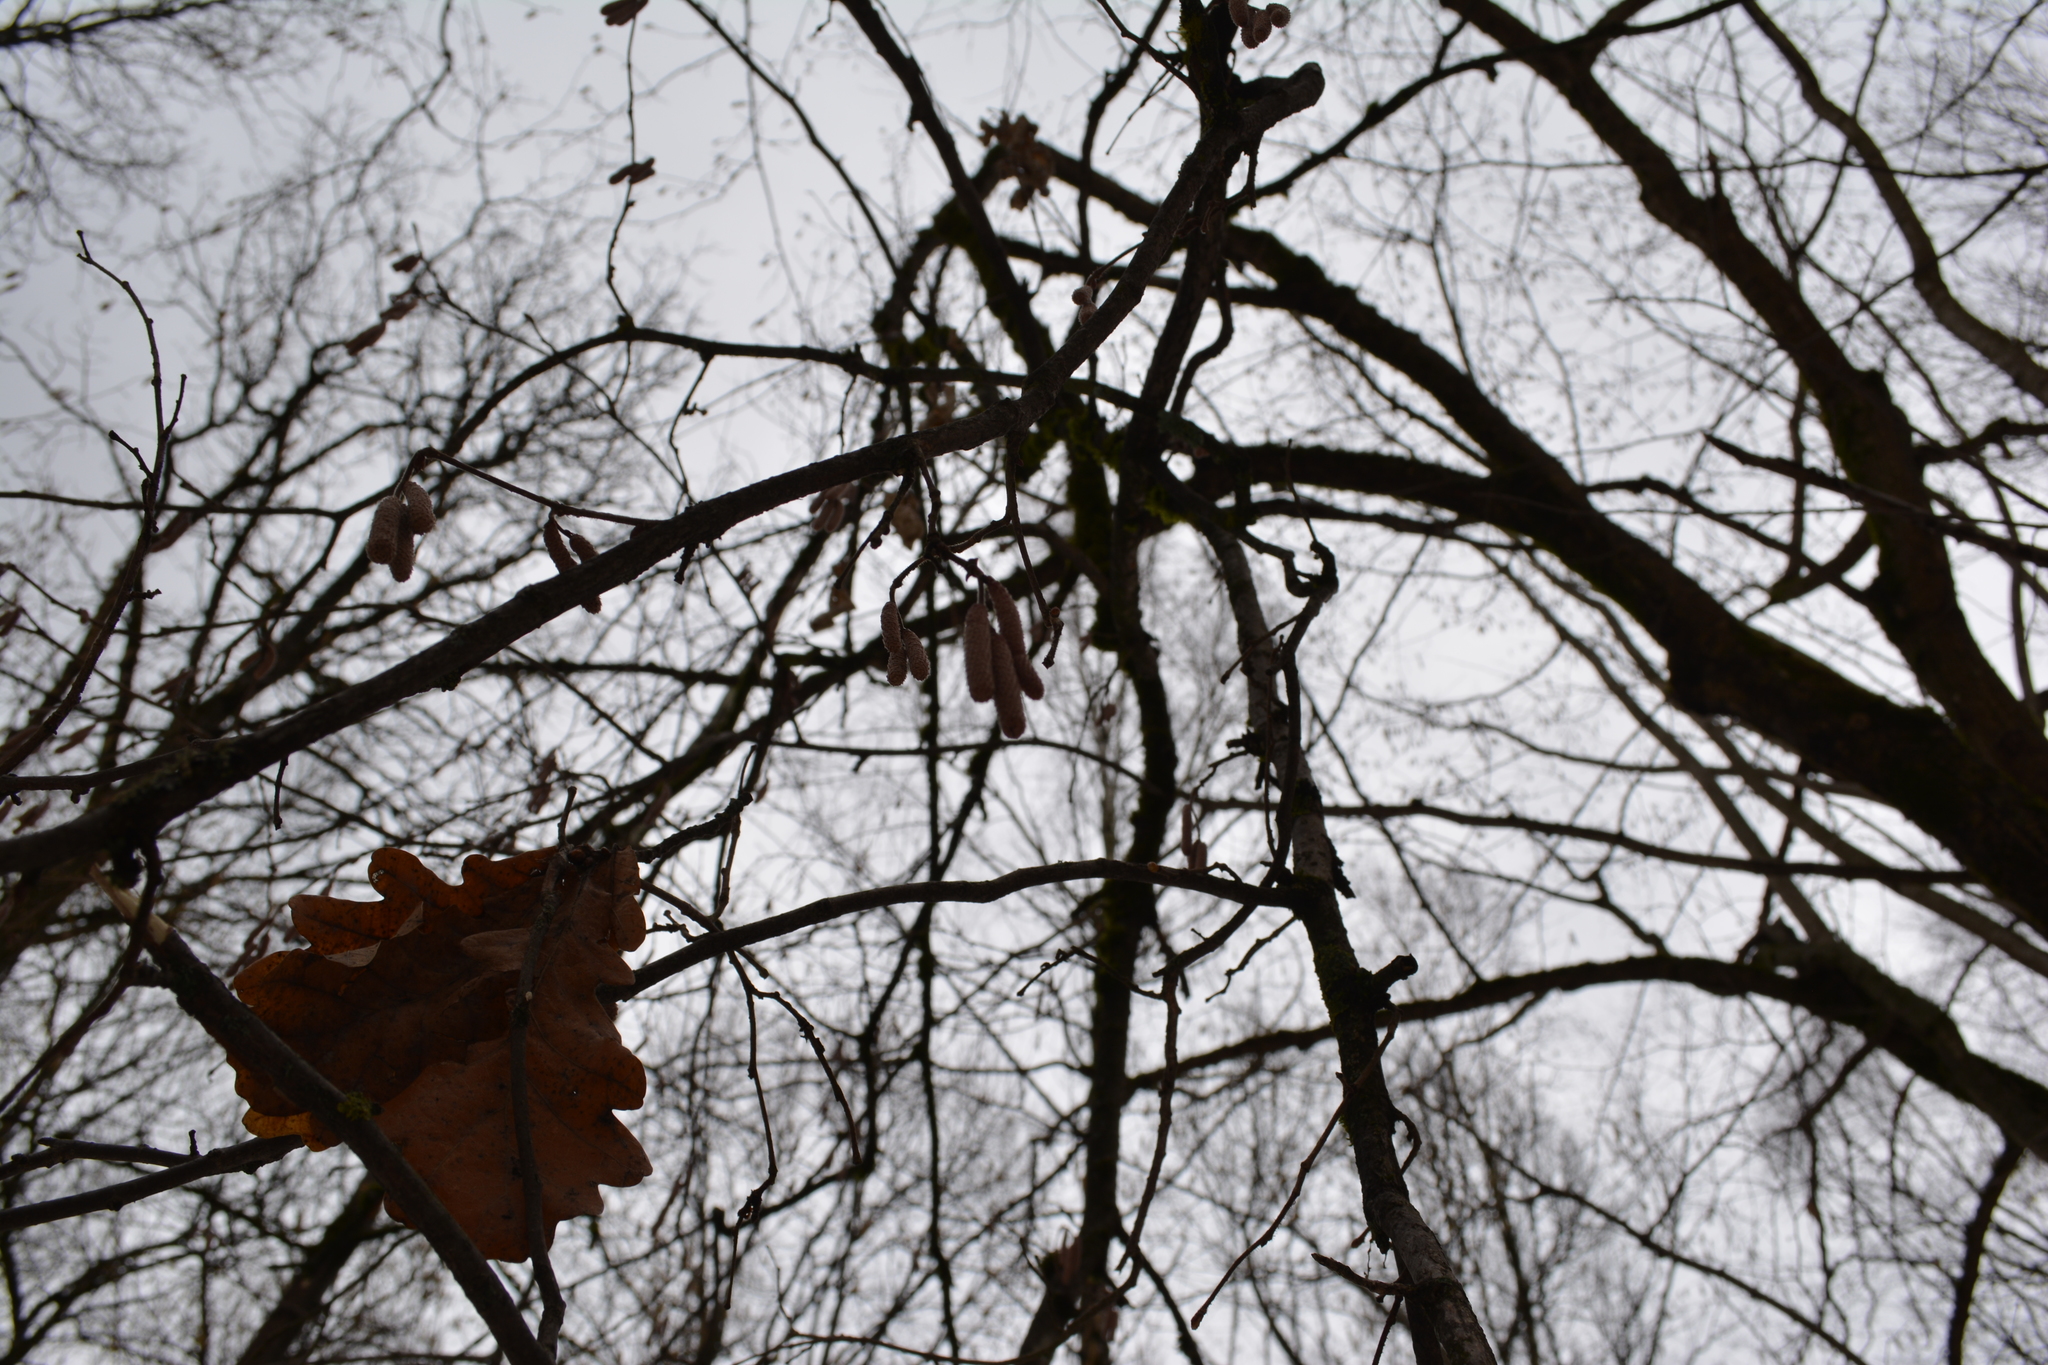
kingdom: Plantae
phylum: Tracheophyta
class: Magnoliopsida
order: Fagales
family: Fagaceae
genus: Quercus
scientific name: Quercus robur
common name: Pedunculate oak
